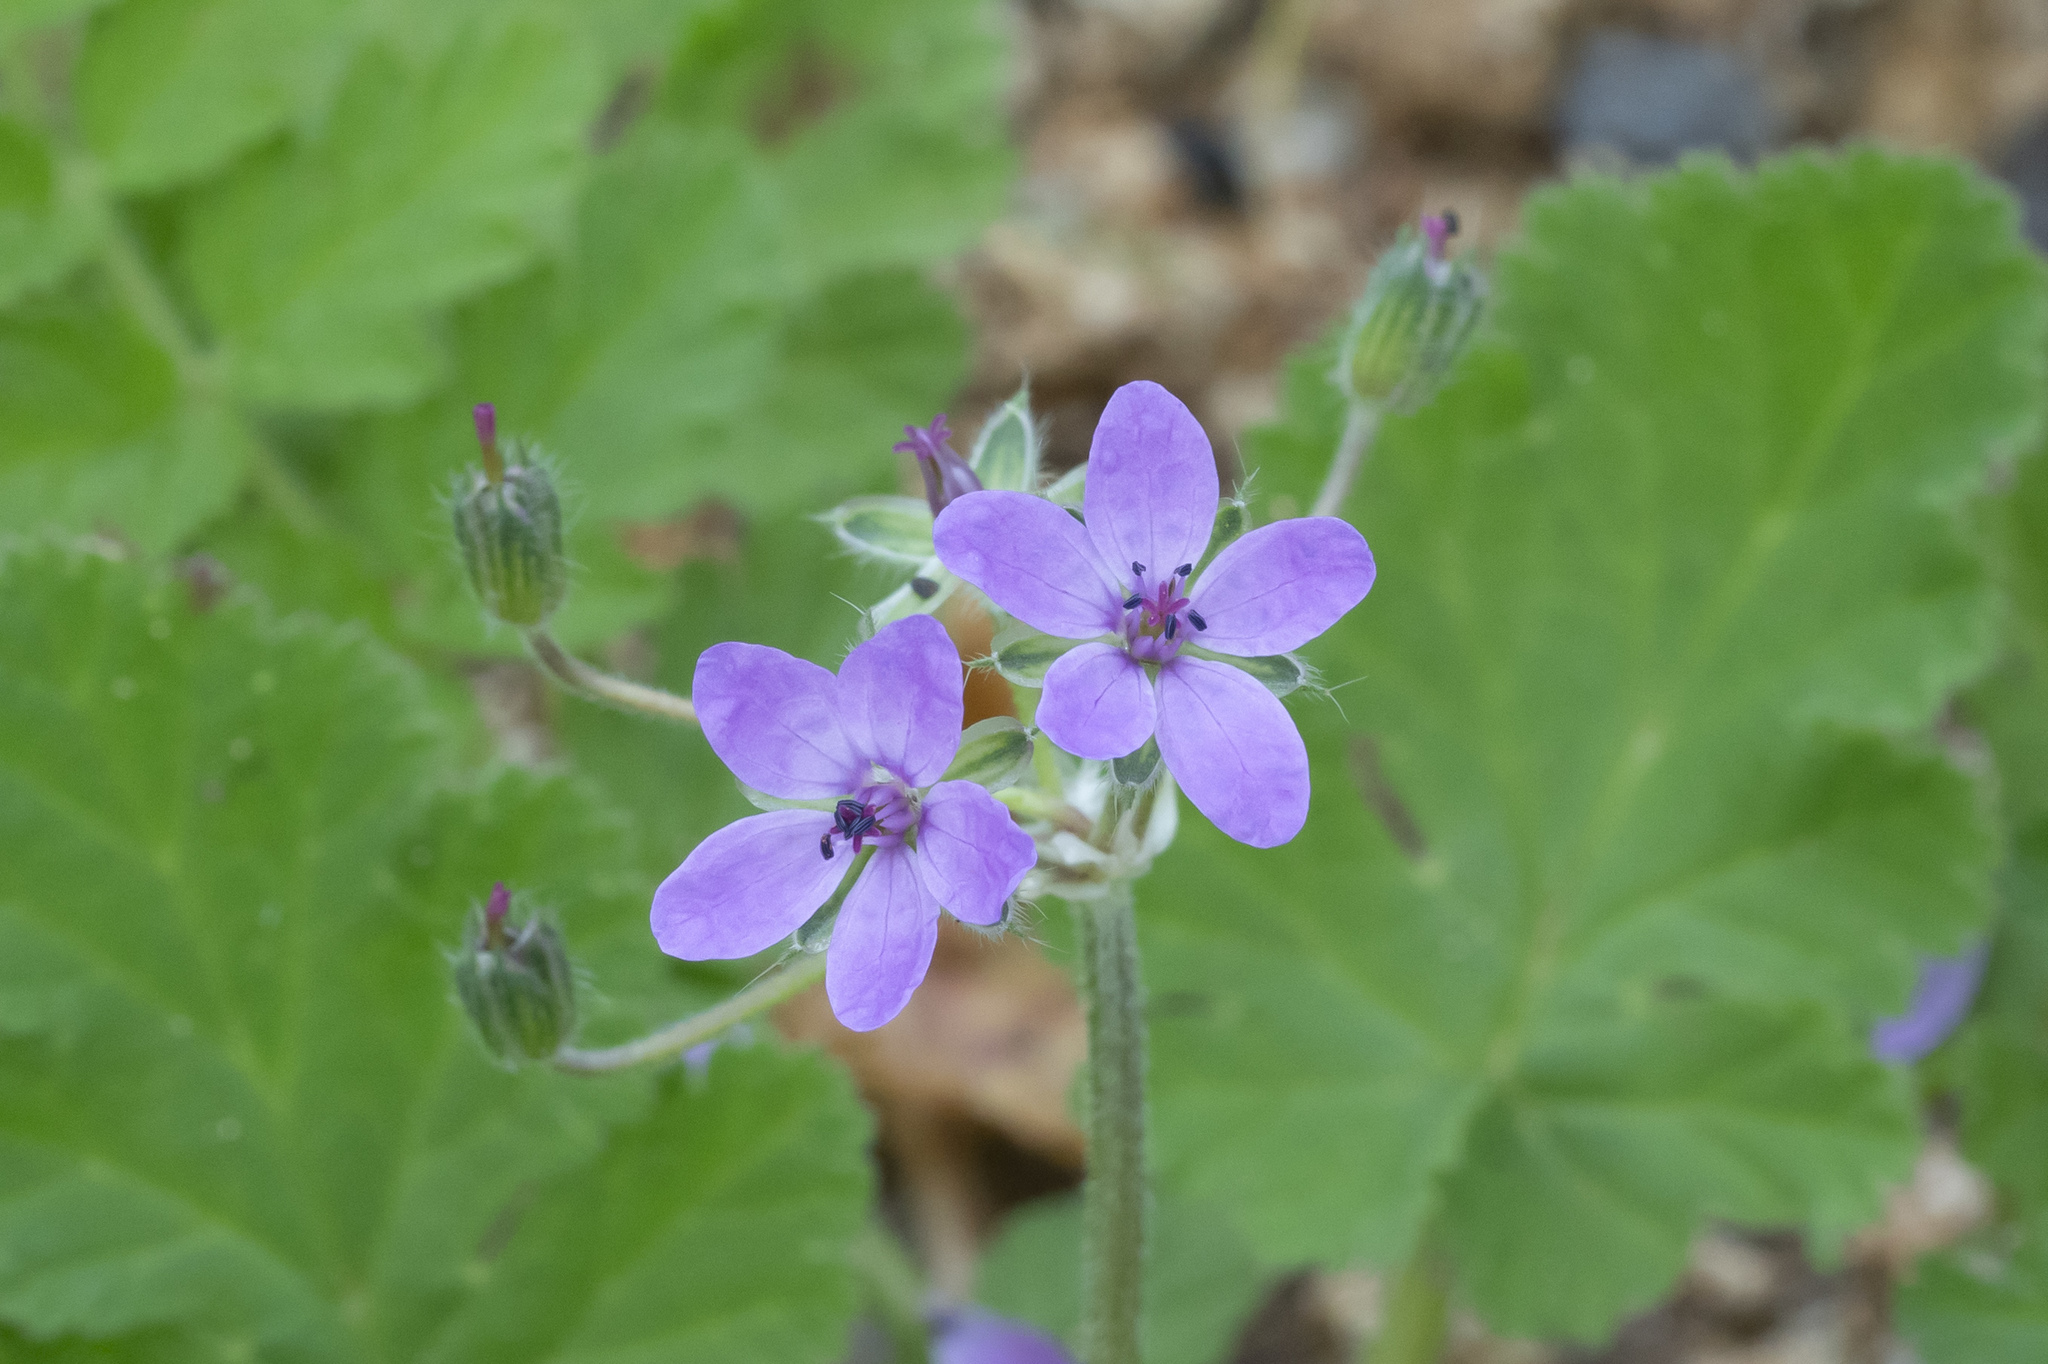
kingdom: Plantae
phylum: Tracheophyta
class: Magnoliopsida
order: Geraniales
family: Geraniaceae
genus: Erodium
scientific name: Erodium malacoides
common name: Soft stork's-bill
